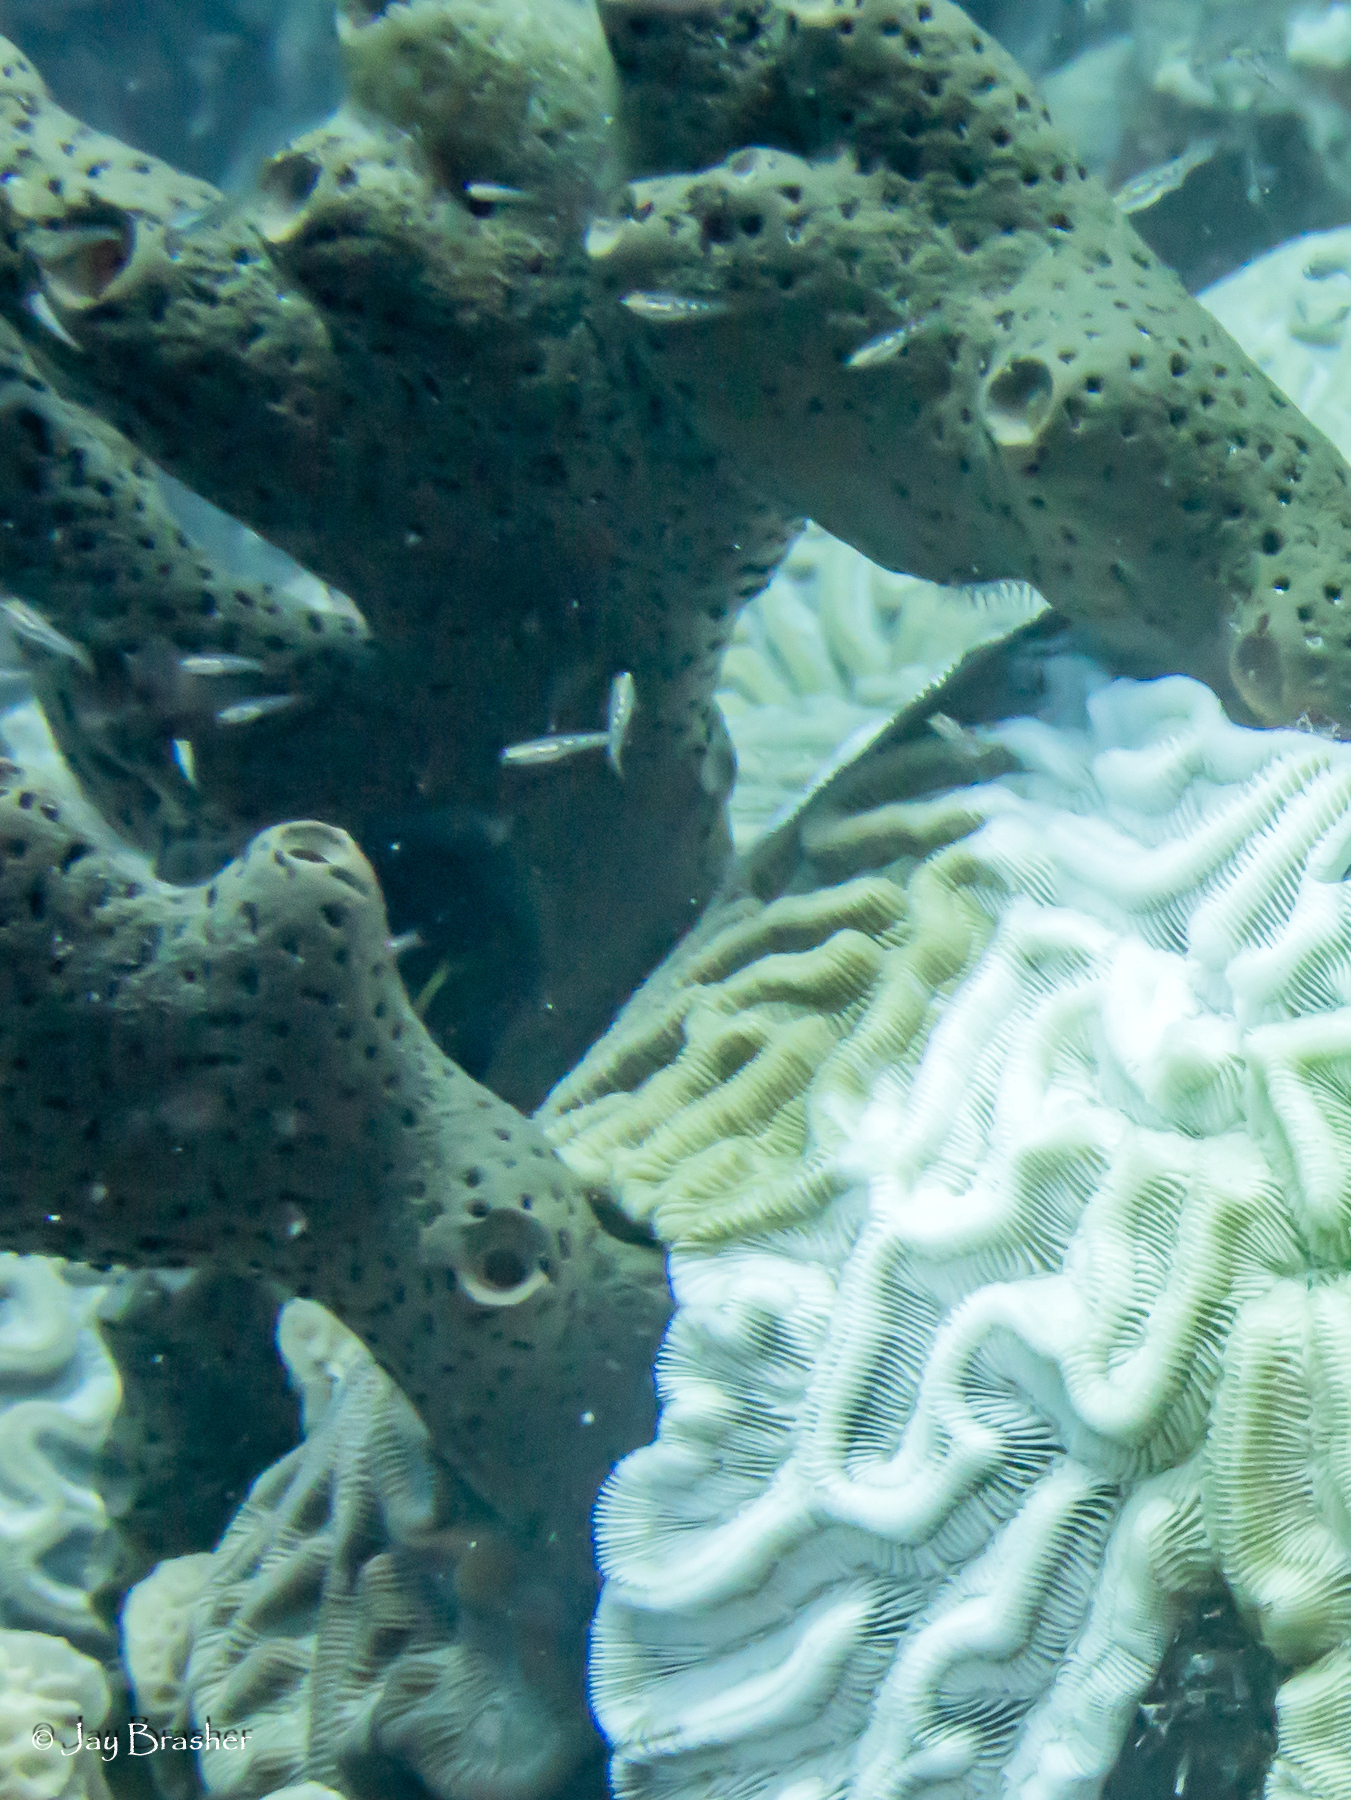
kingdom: Animalia
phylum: Porifera
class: Demospongiae
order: Agelasida
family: Agelasidae
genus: Agelas
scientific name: Agelas conifera
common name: Brown tube sponge
